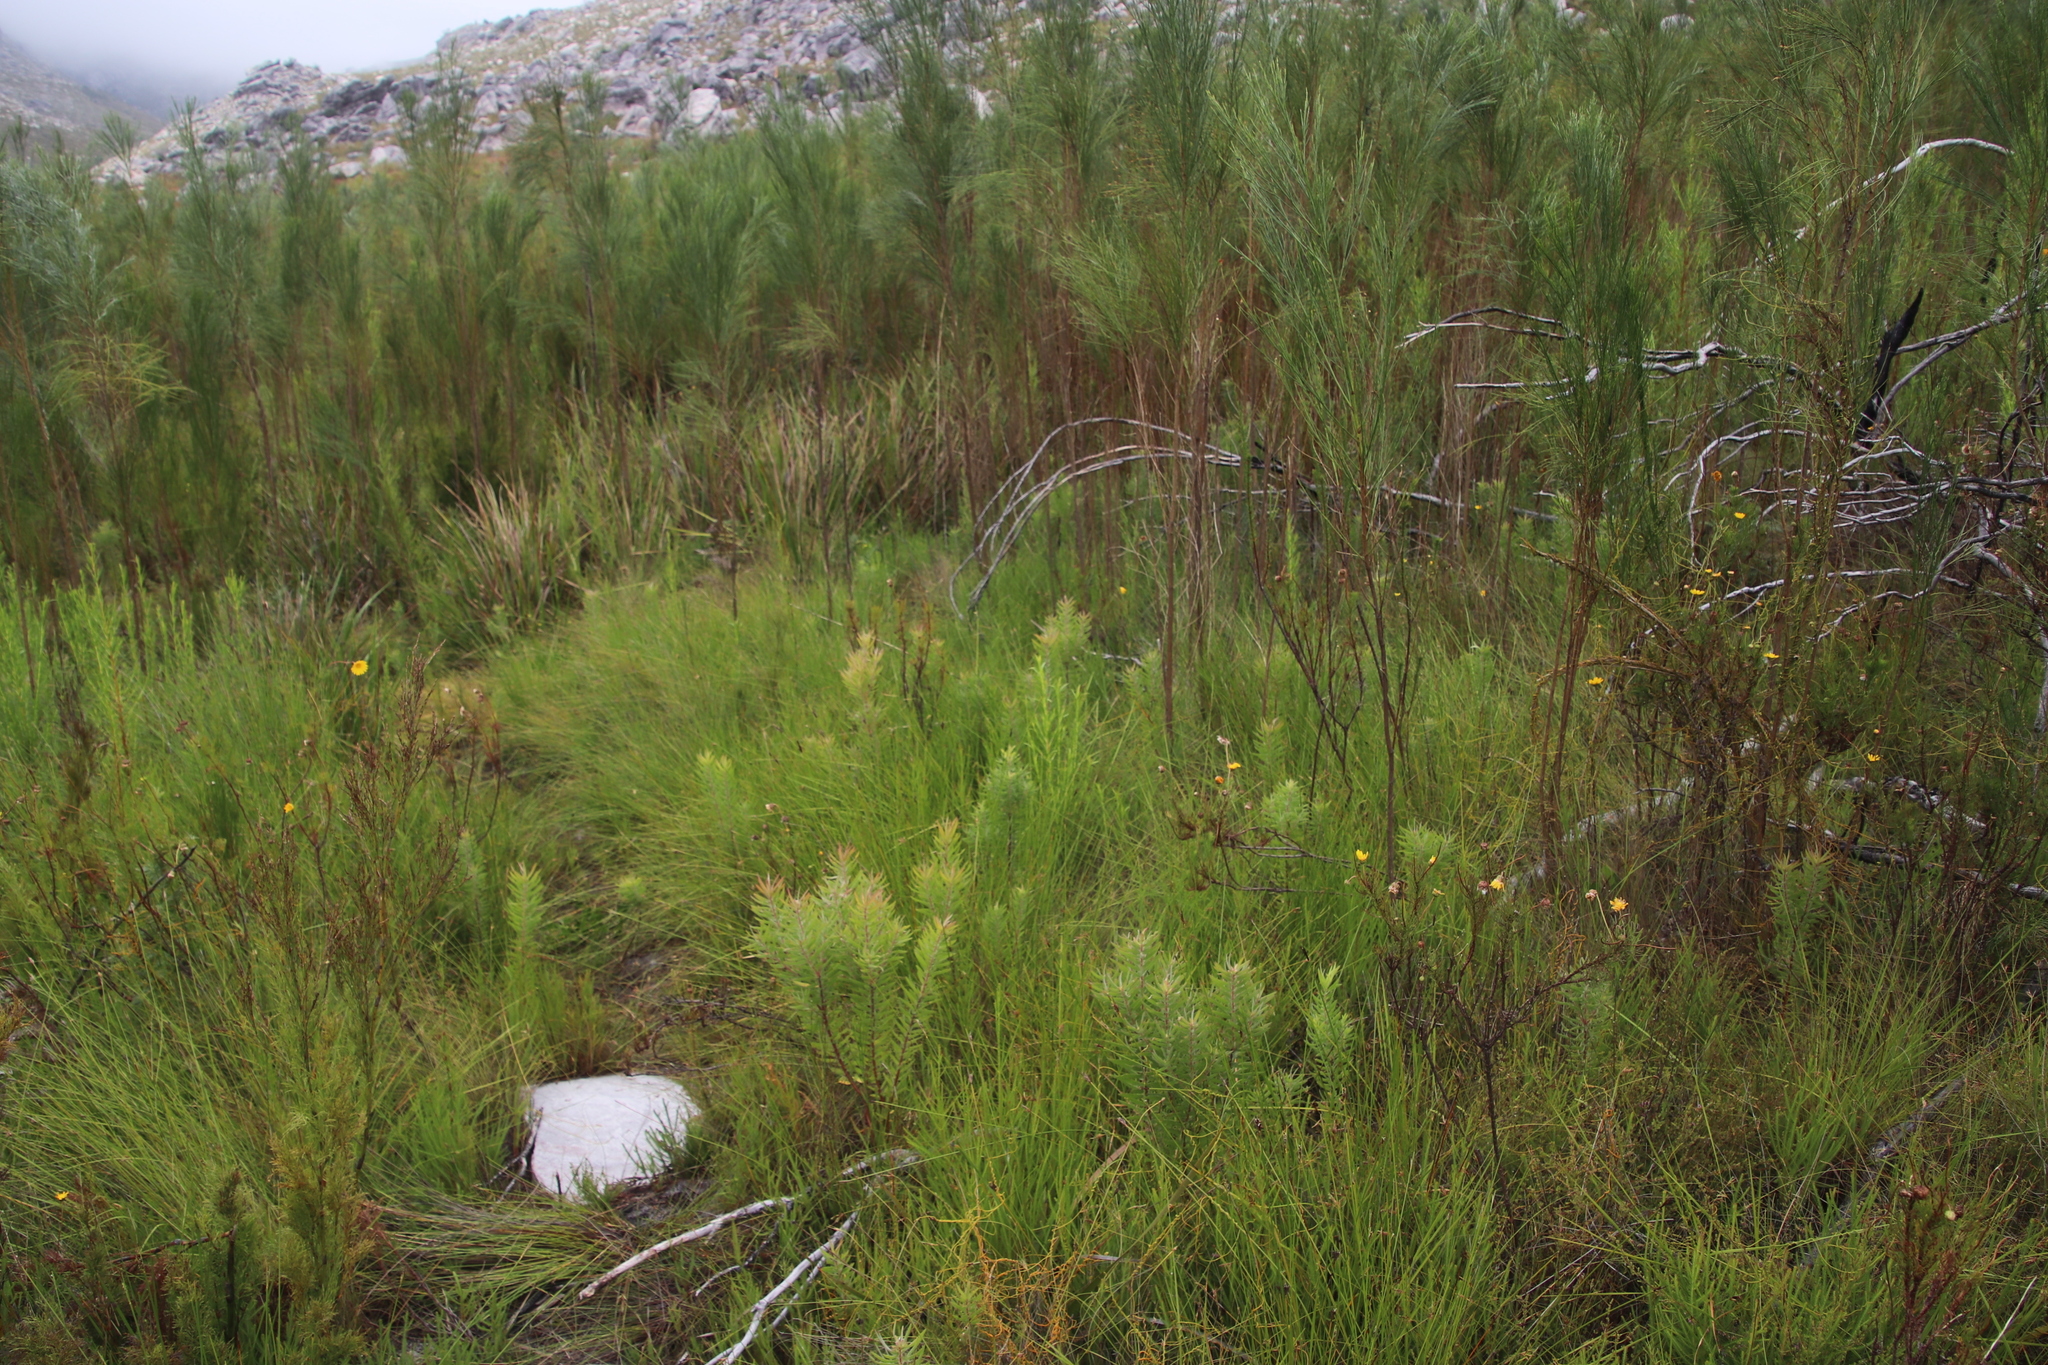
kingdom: Plantae
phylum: Tracheophyta
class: Magnoliopsida
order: Proteales
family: Proteaceae
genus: Leucadendron
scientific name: Leucadendron salicifolium
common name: Common stream conebush
